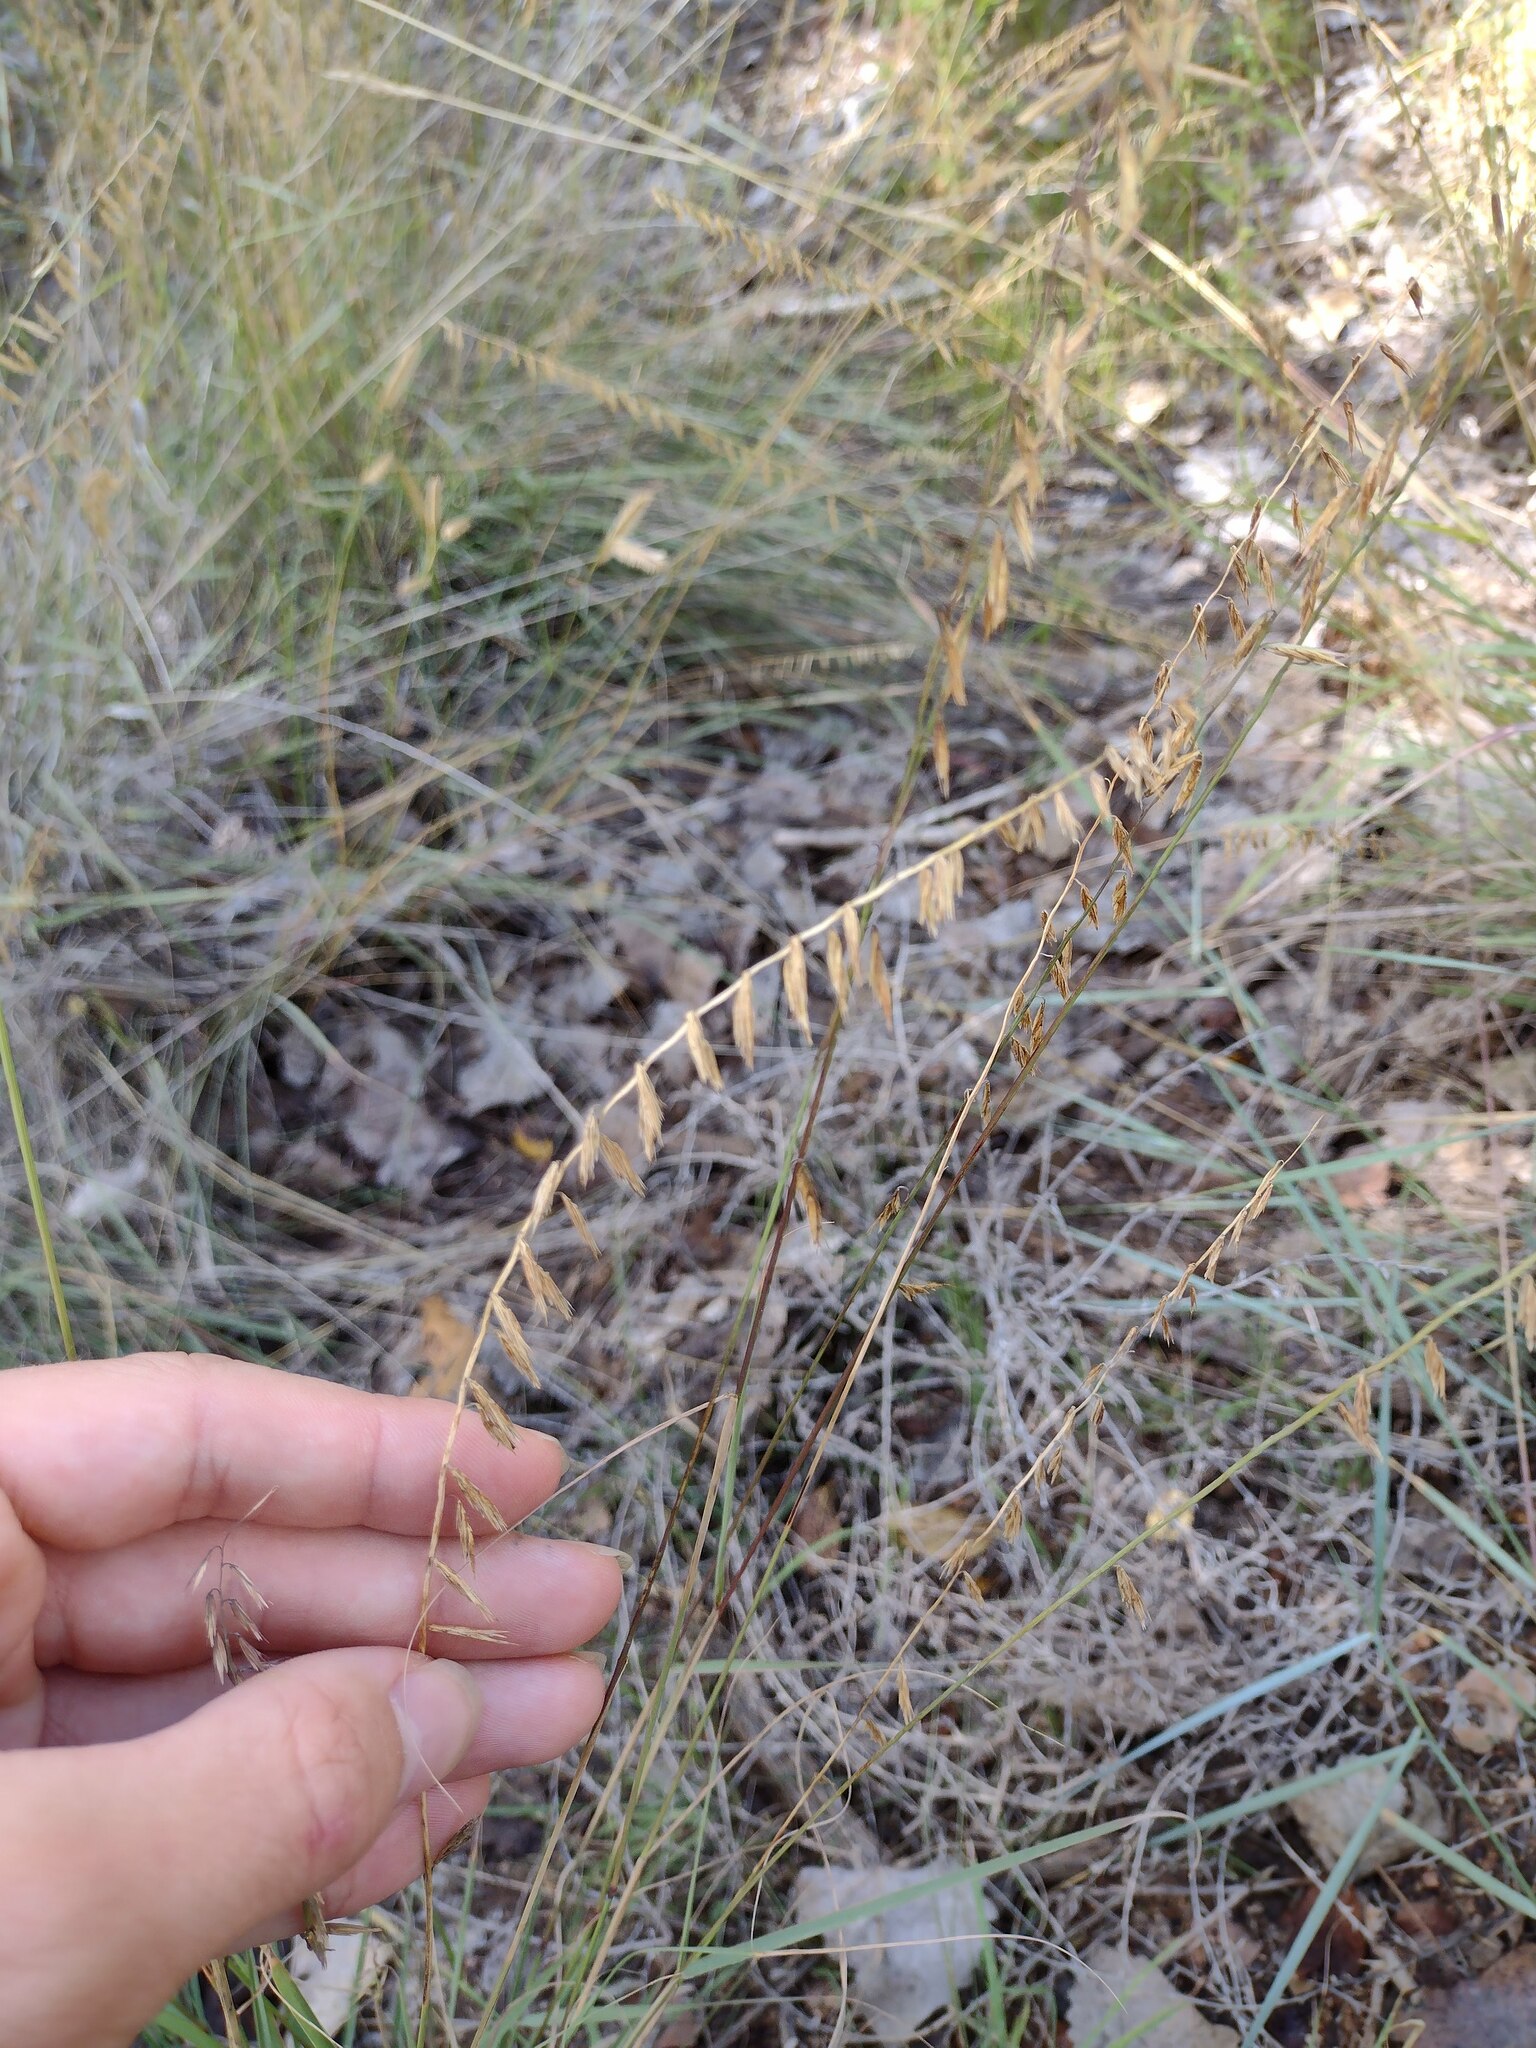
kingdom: Plantae
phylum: Tracheophyta
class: Liliopsida
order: Poales
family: Poaceae
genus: Bouteloua
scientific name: Bouteloua curtipendula
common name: Side-oats grama
